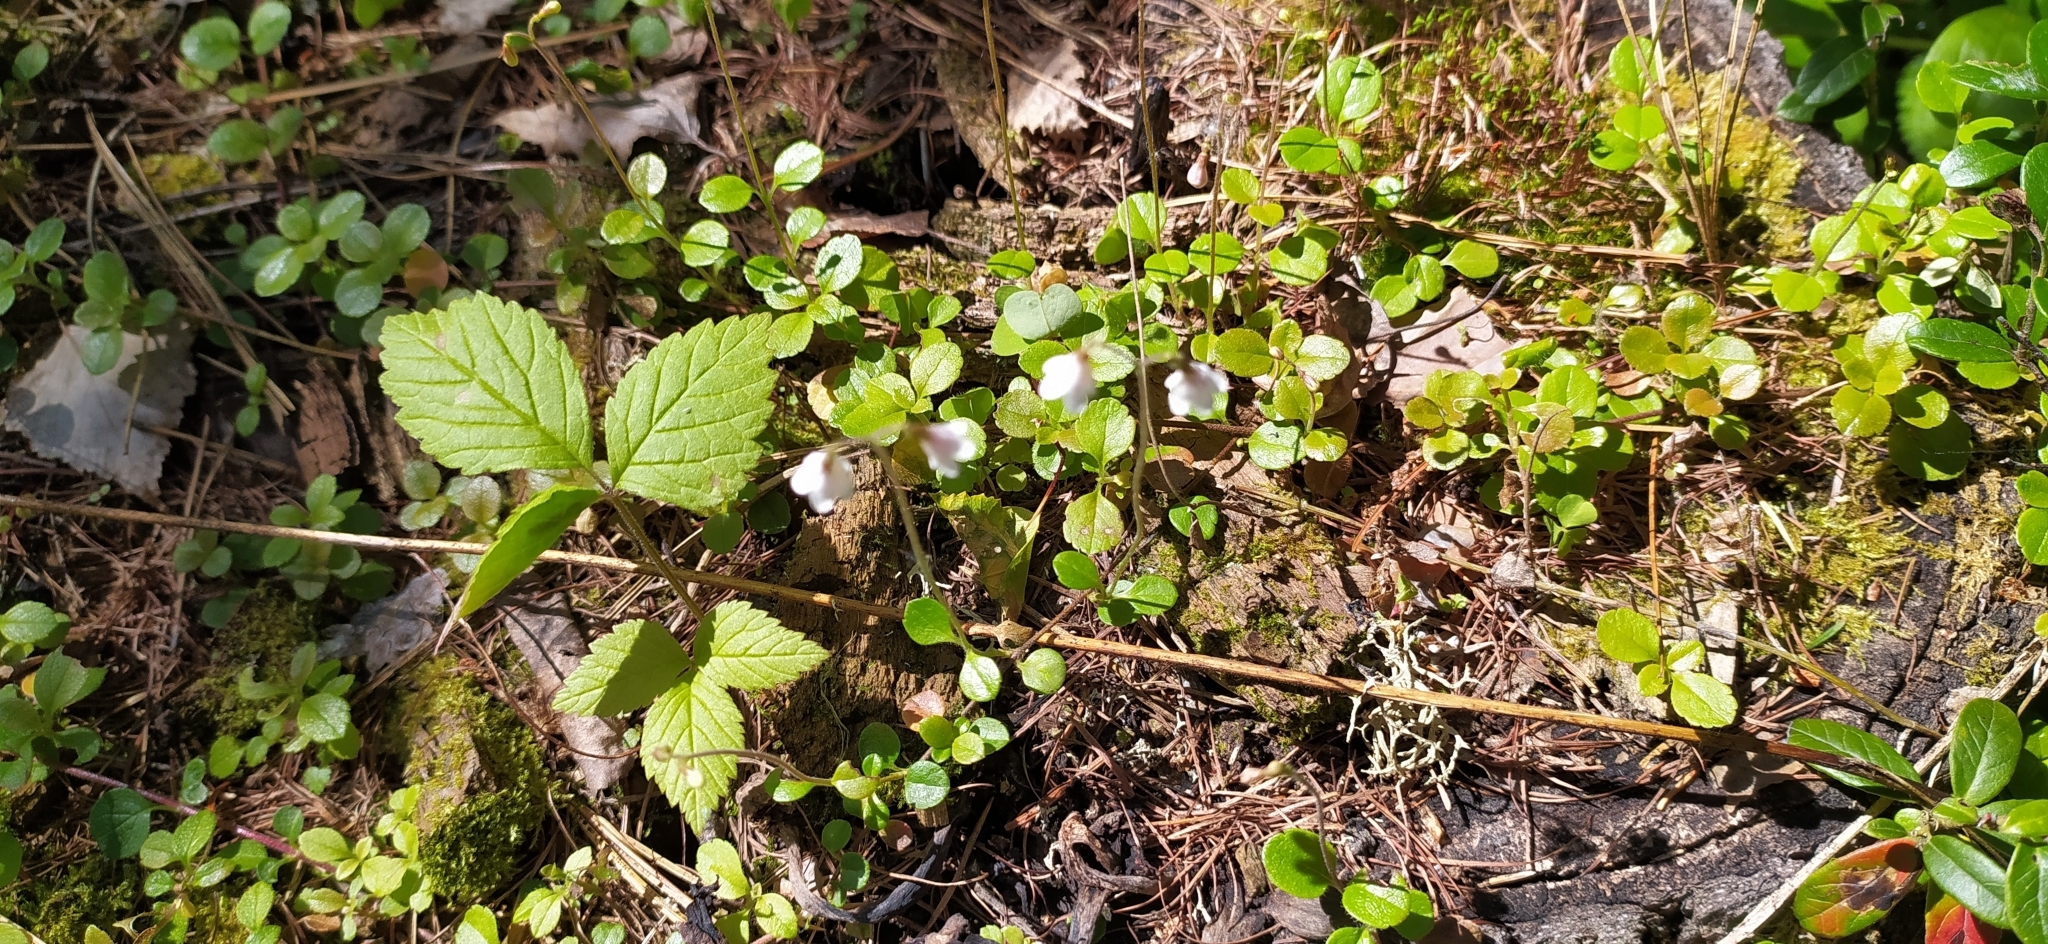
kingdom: Plantae
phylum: Tracheophyta
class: Magnoliopsida
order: Dipsacales
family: Caprifoliaceae
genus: Linnaea
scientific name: Linnaea borealis
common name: Twinflower
